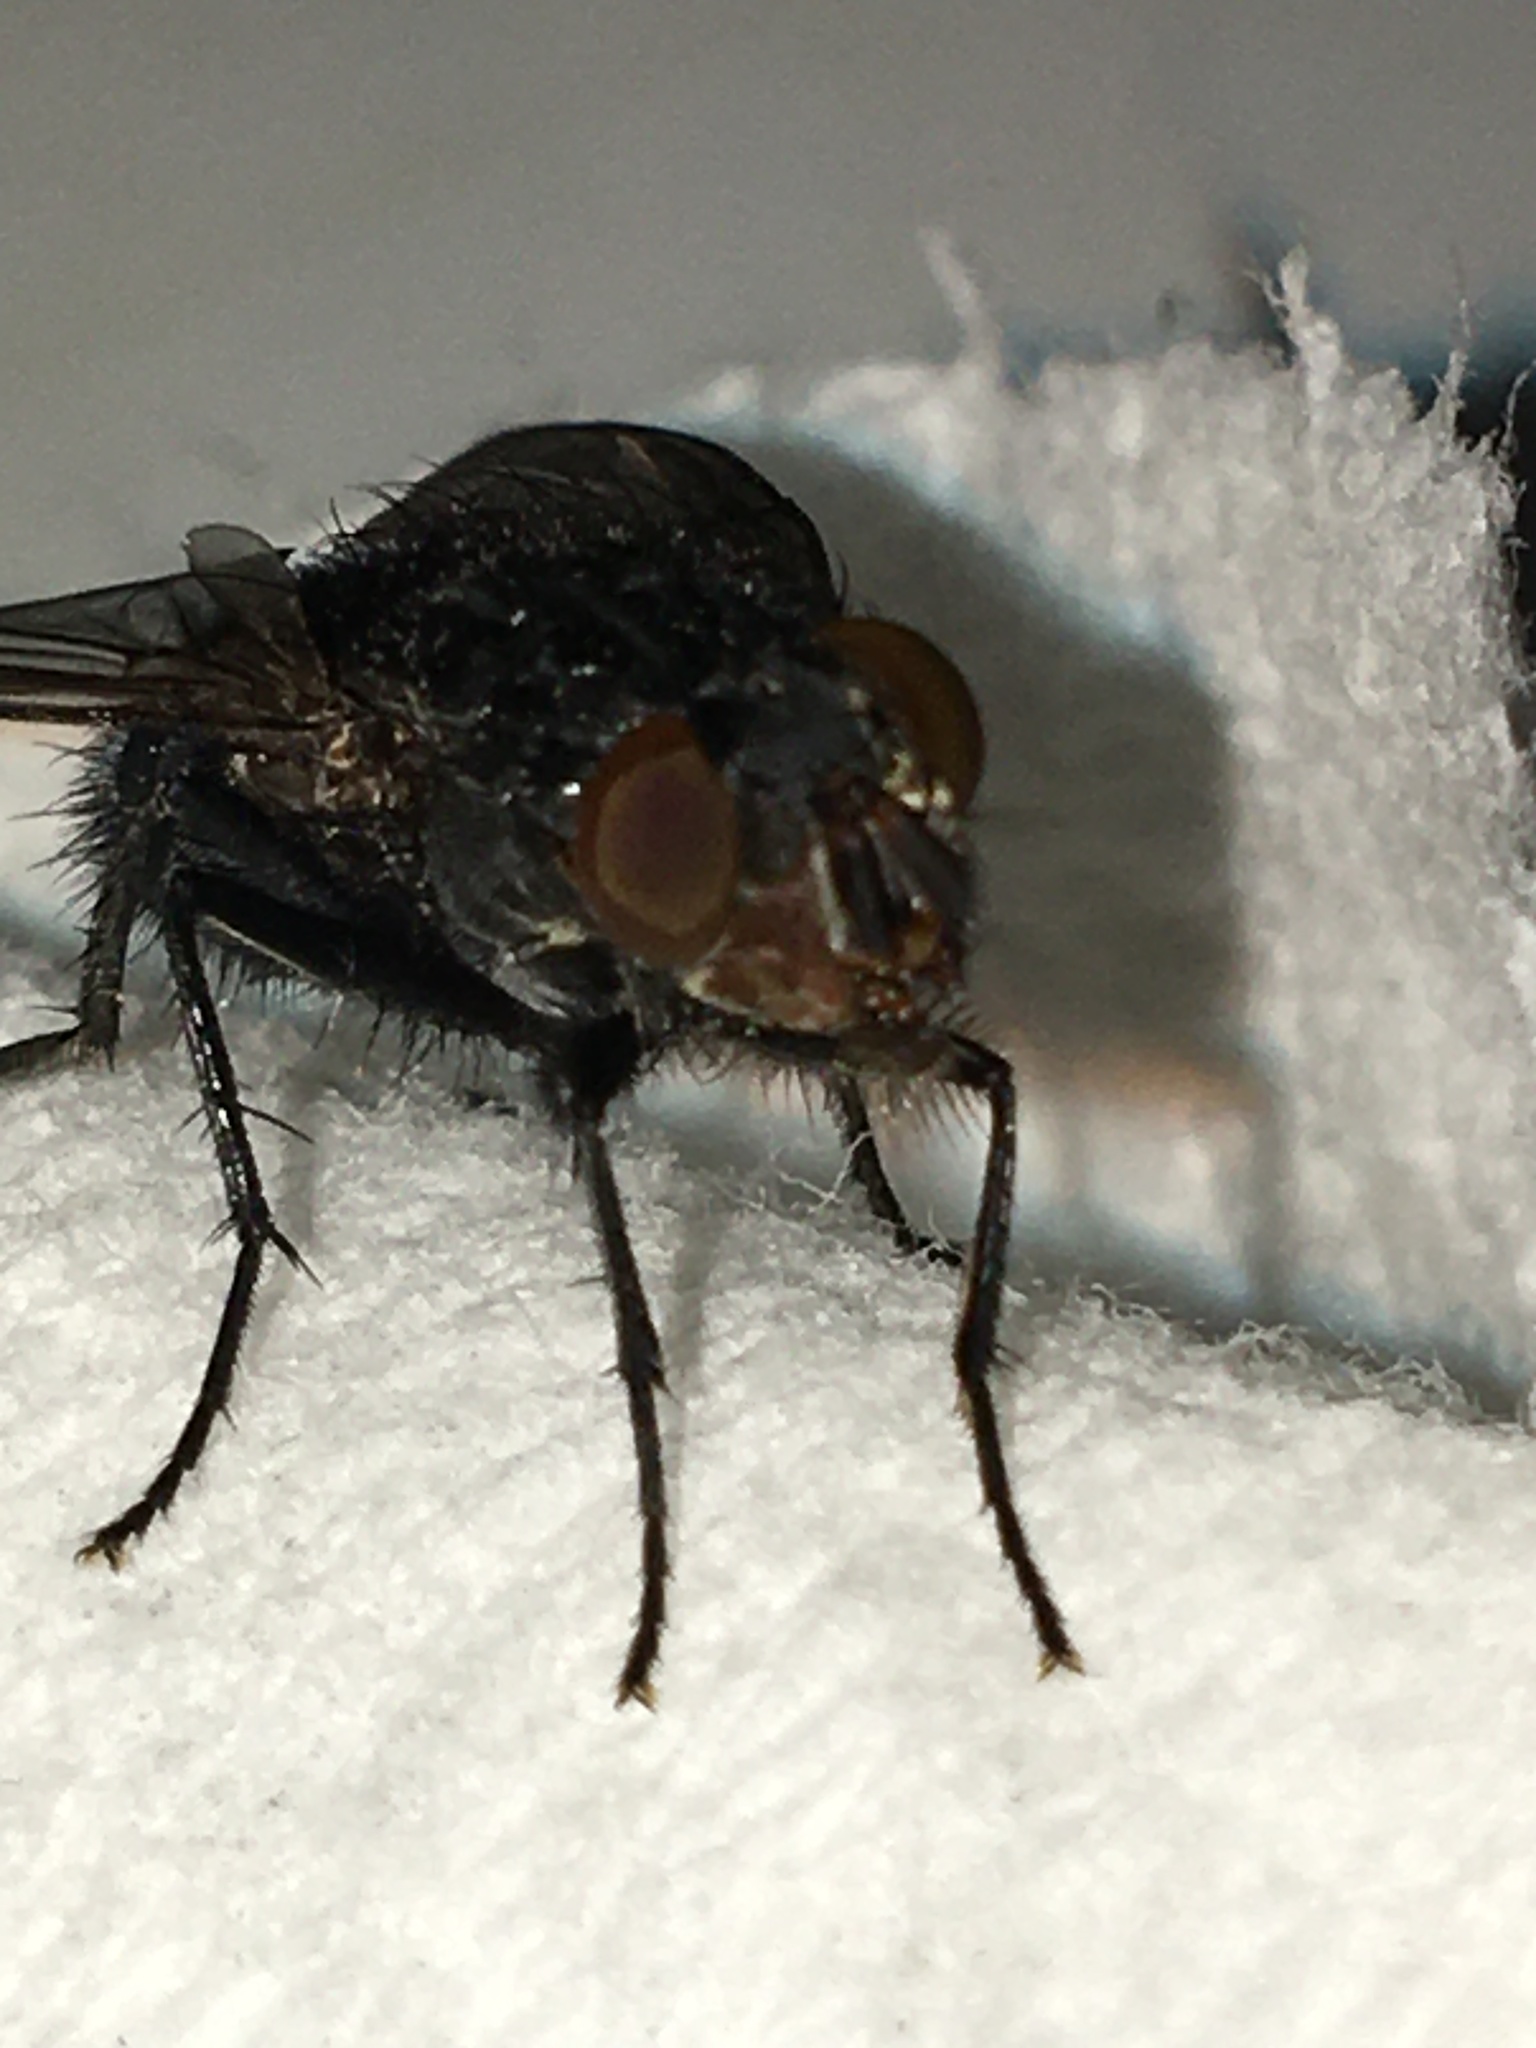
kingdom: Animalia
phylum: Arthropoda
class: Insecta
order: Diptera
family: Calliphoridae
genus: Calliphora
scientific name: Calliphora vicina
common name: Common blow flie
